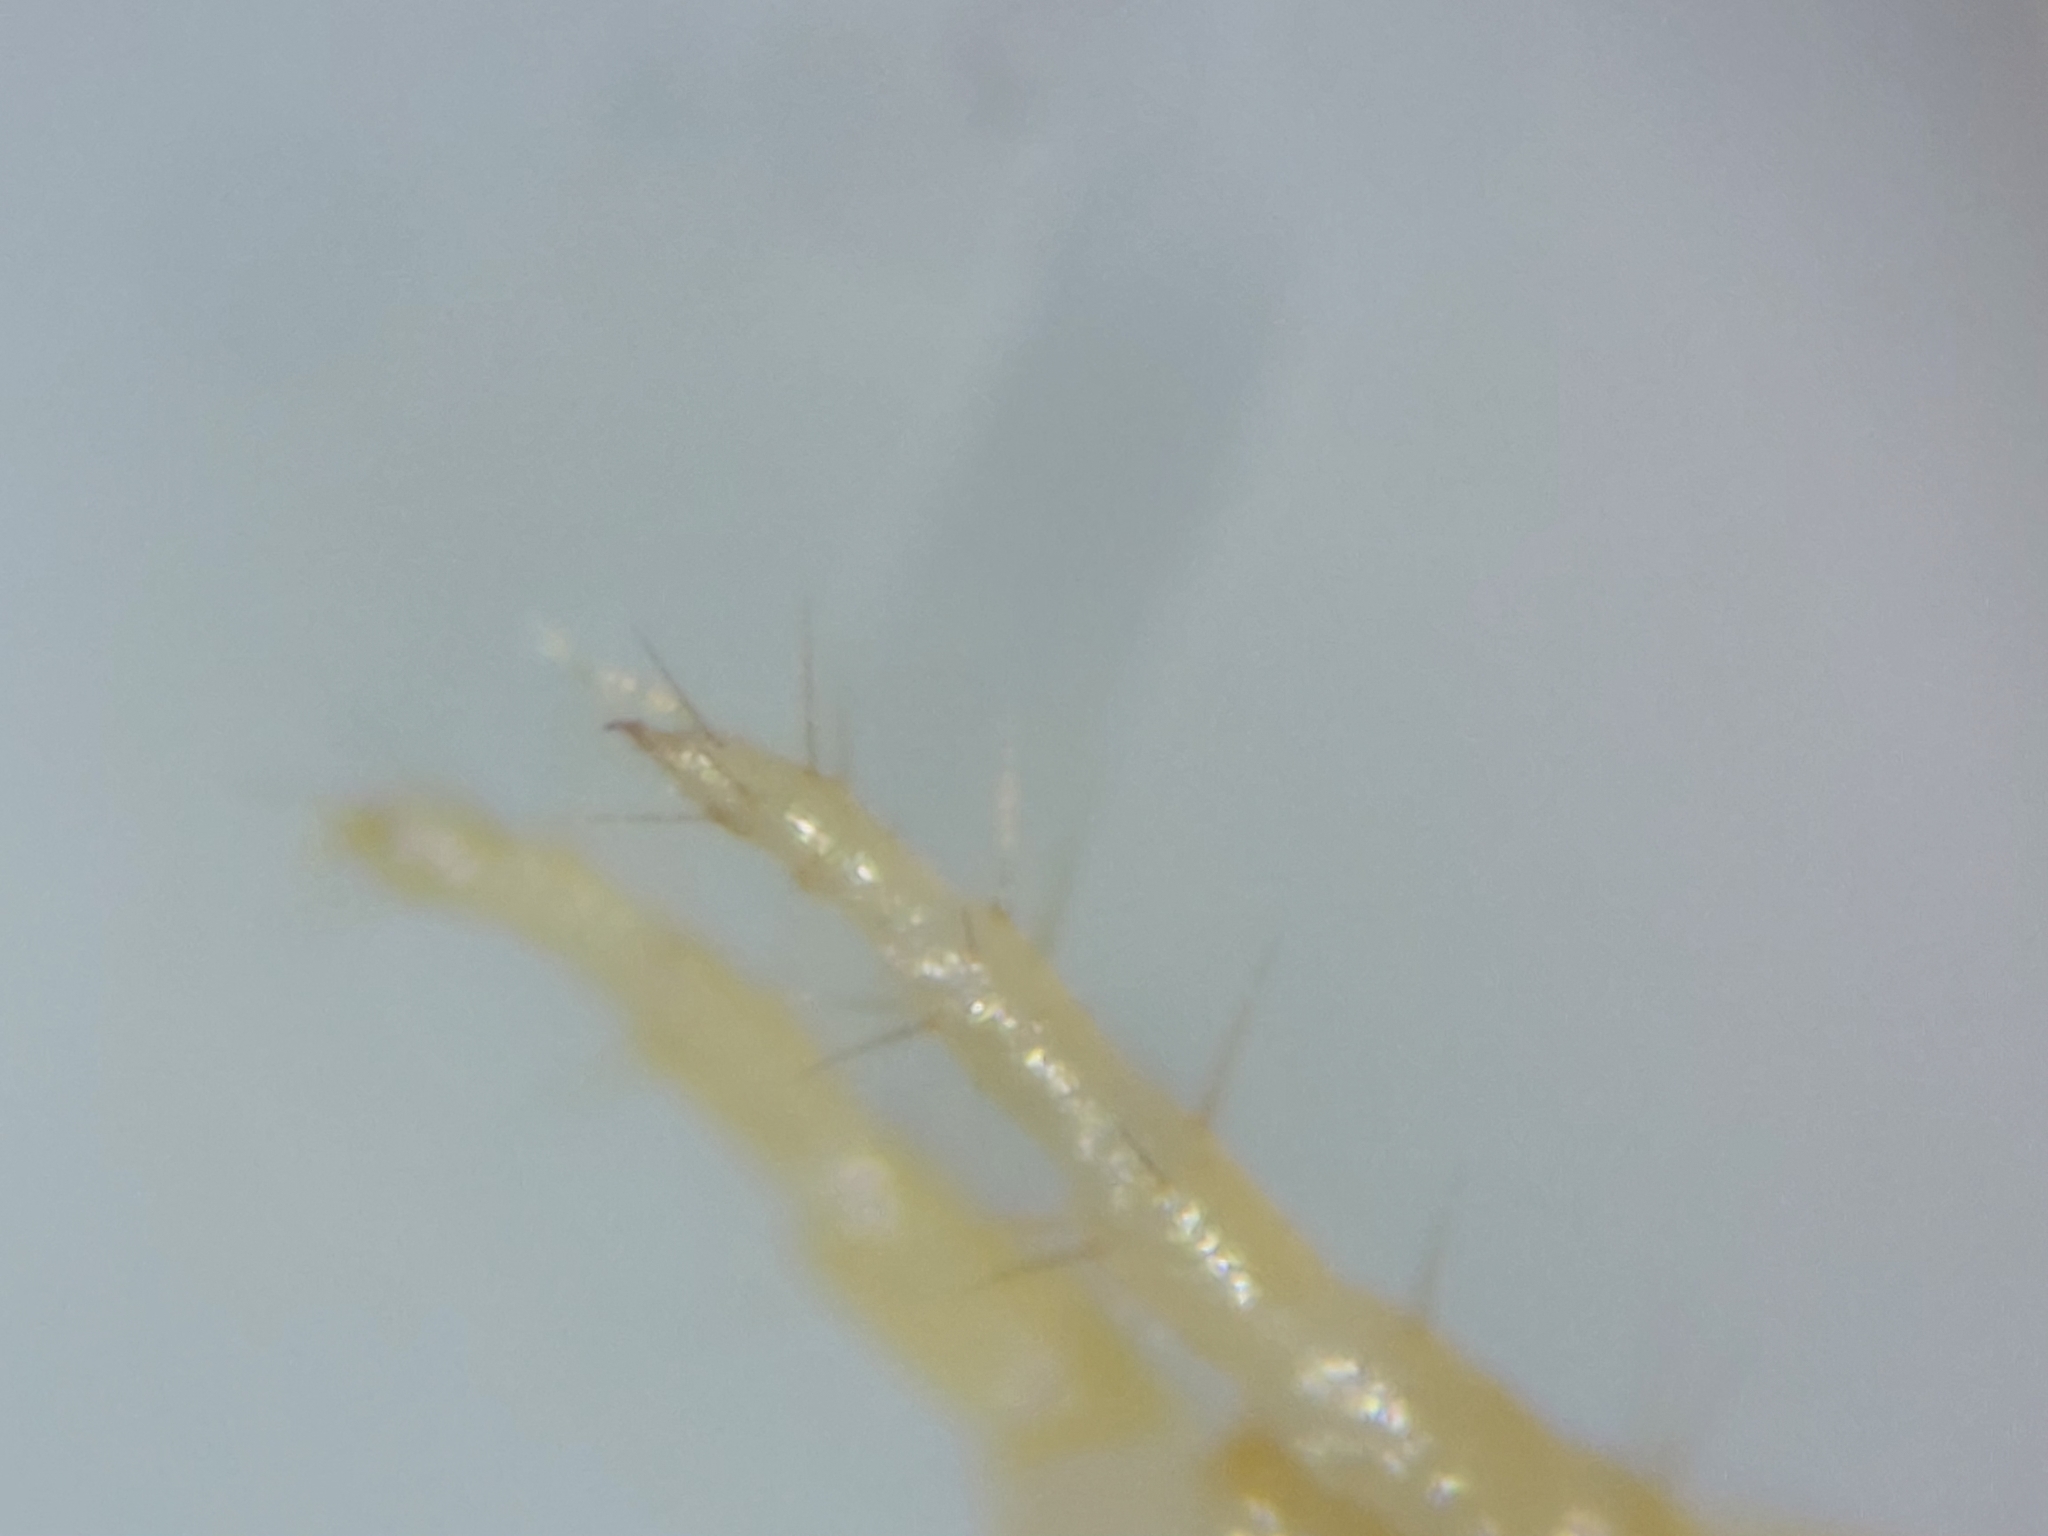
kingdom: Animalia
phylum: Arthropoda
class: Chilopoda
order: Geophilomorpha
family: Geophilidae
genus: Geophilus
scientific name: Geophilus flavus
